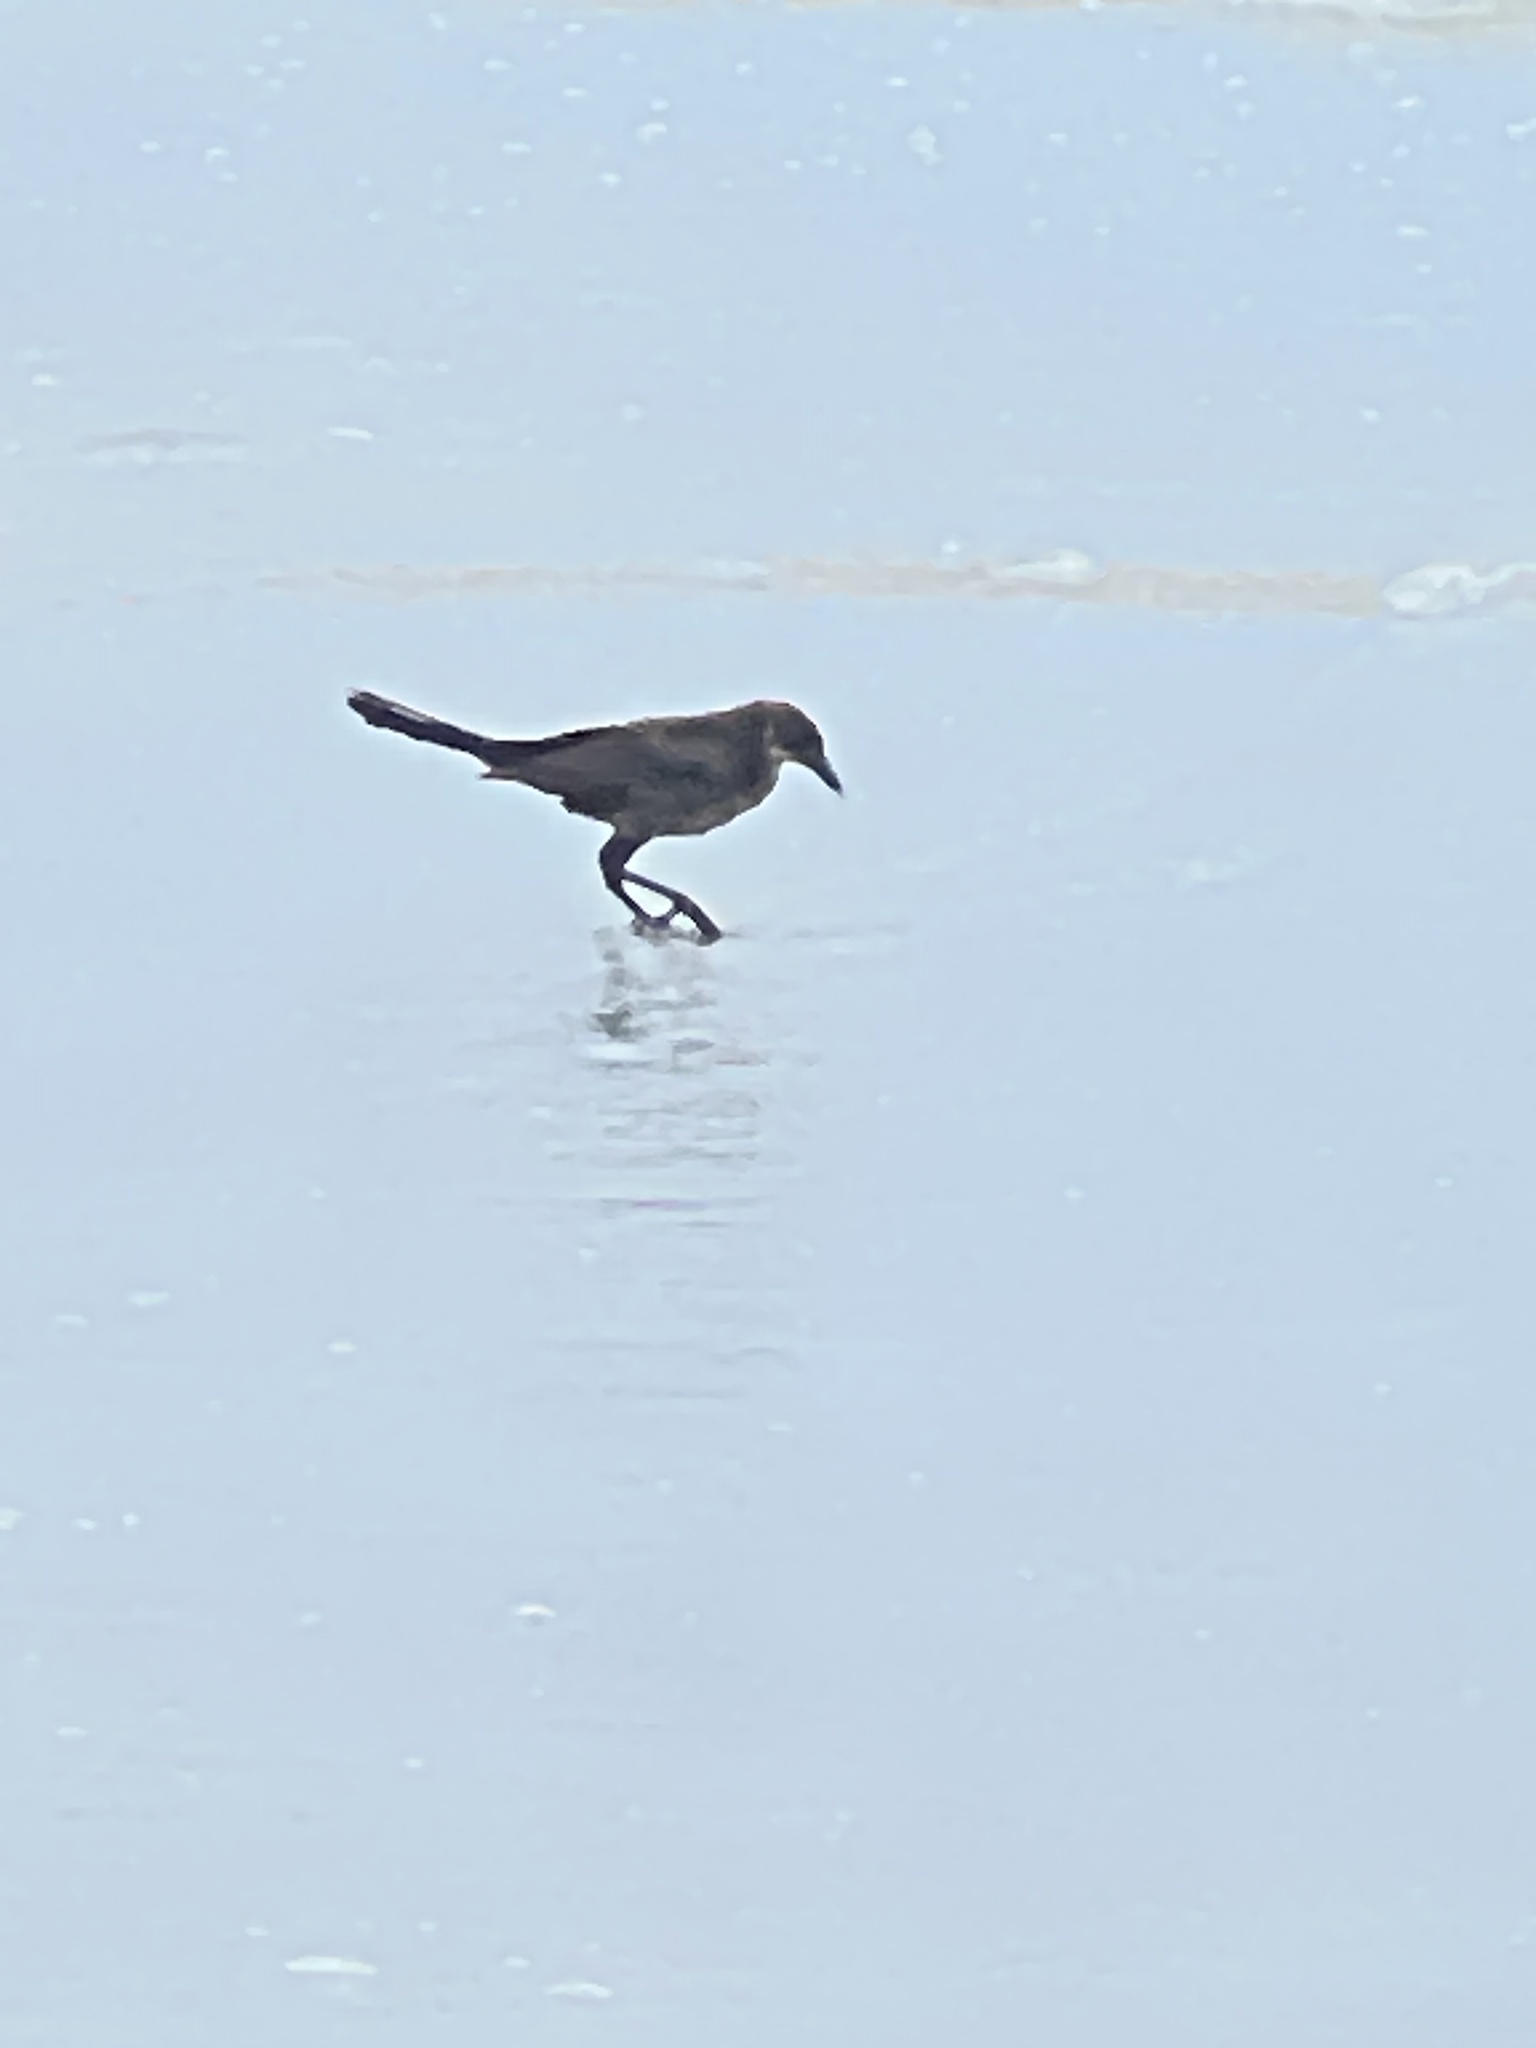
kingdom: Animalia
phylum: Chordata
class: Aves
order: Passeriformes
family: Icteridae
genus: Quiscalus
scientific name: Quiscalus major
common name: Boat-tailed grackle
